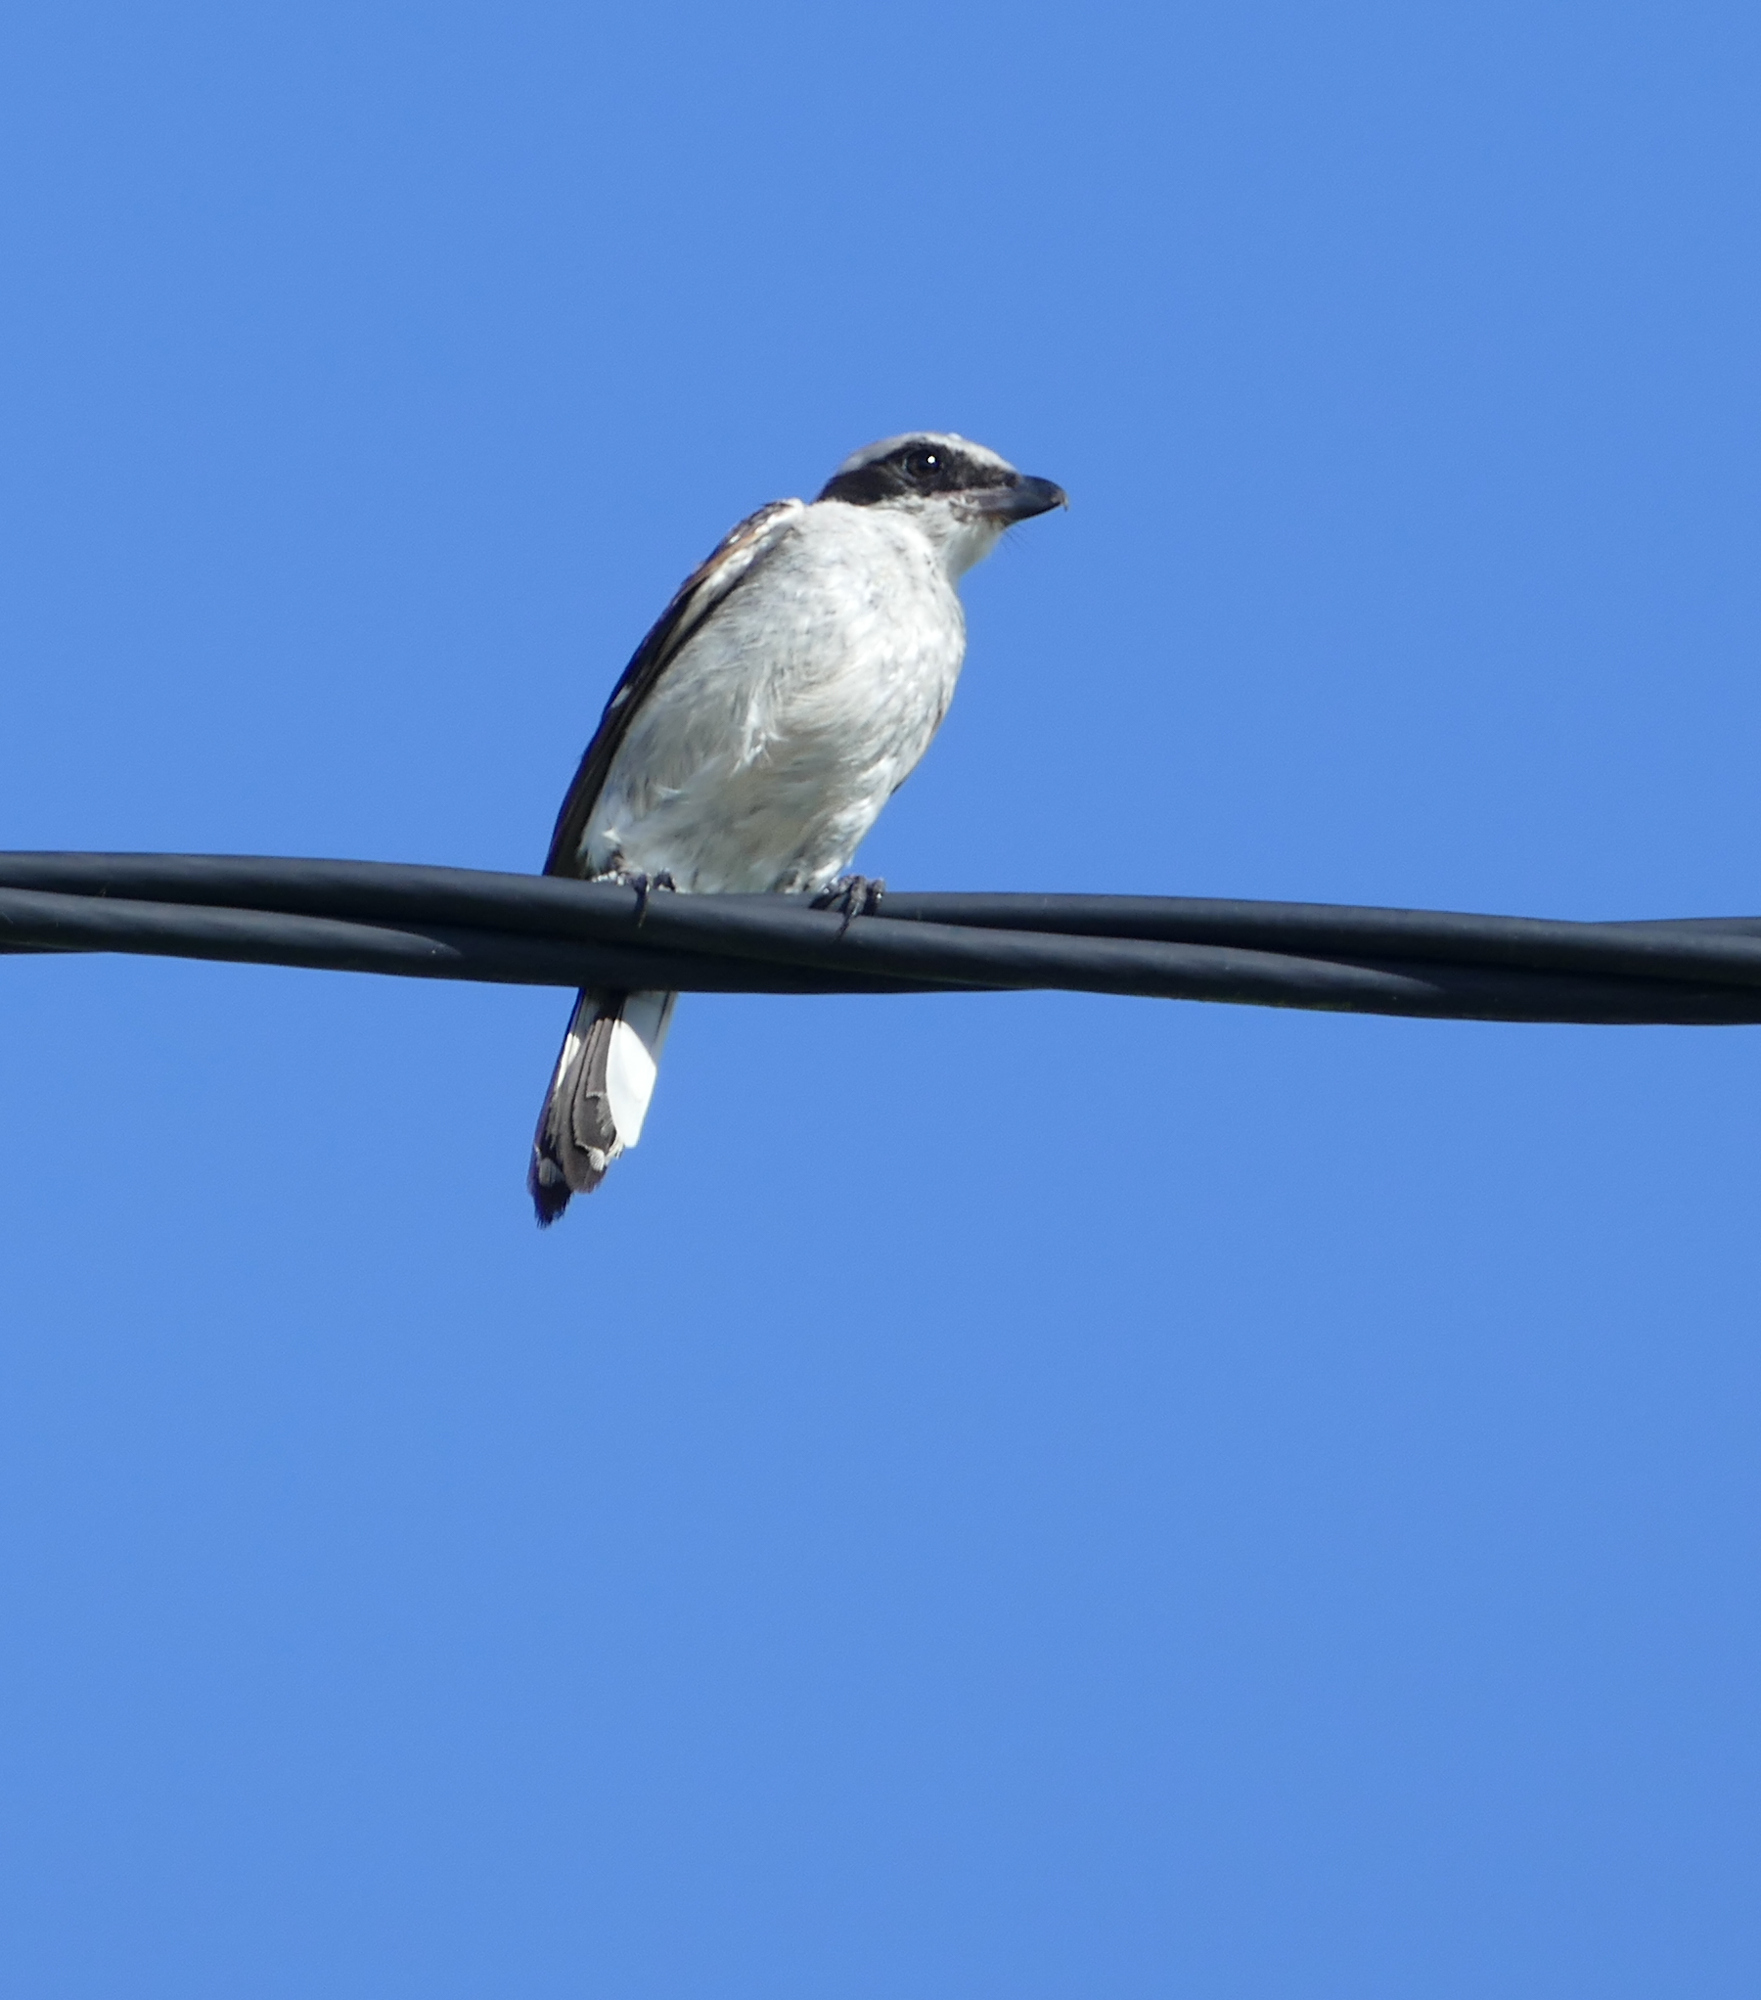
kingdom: Animalia
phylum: Chordata
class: Aves
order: Passeriformes
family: Laniidae
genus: Lanius
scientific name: Lanius ludovicianus
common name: Loggerhead shrike
